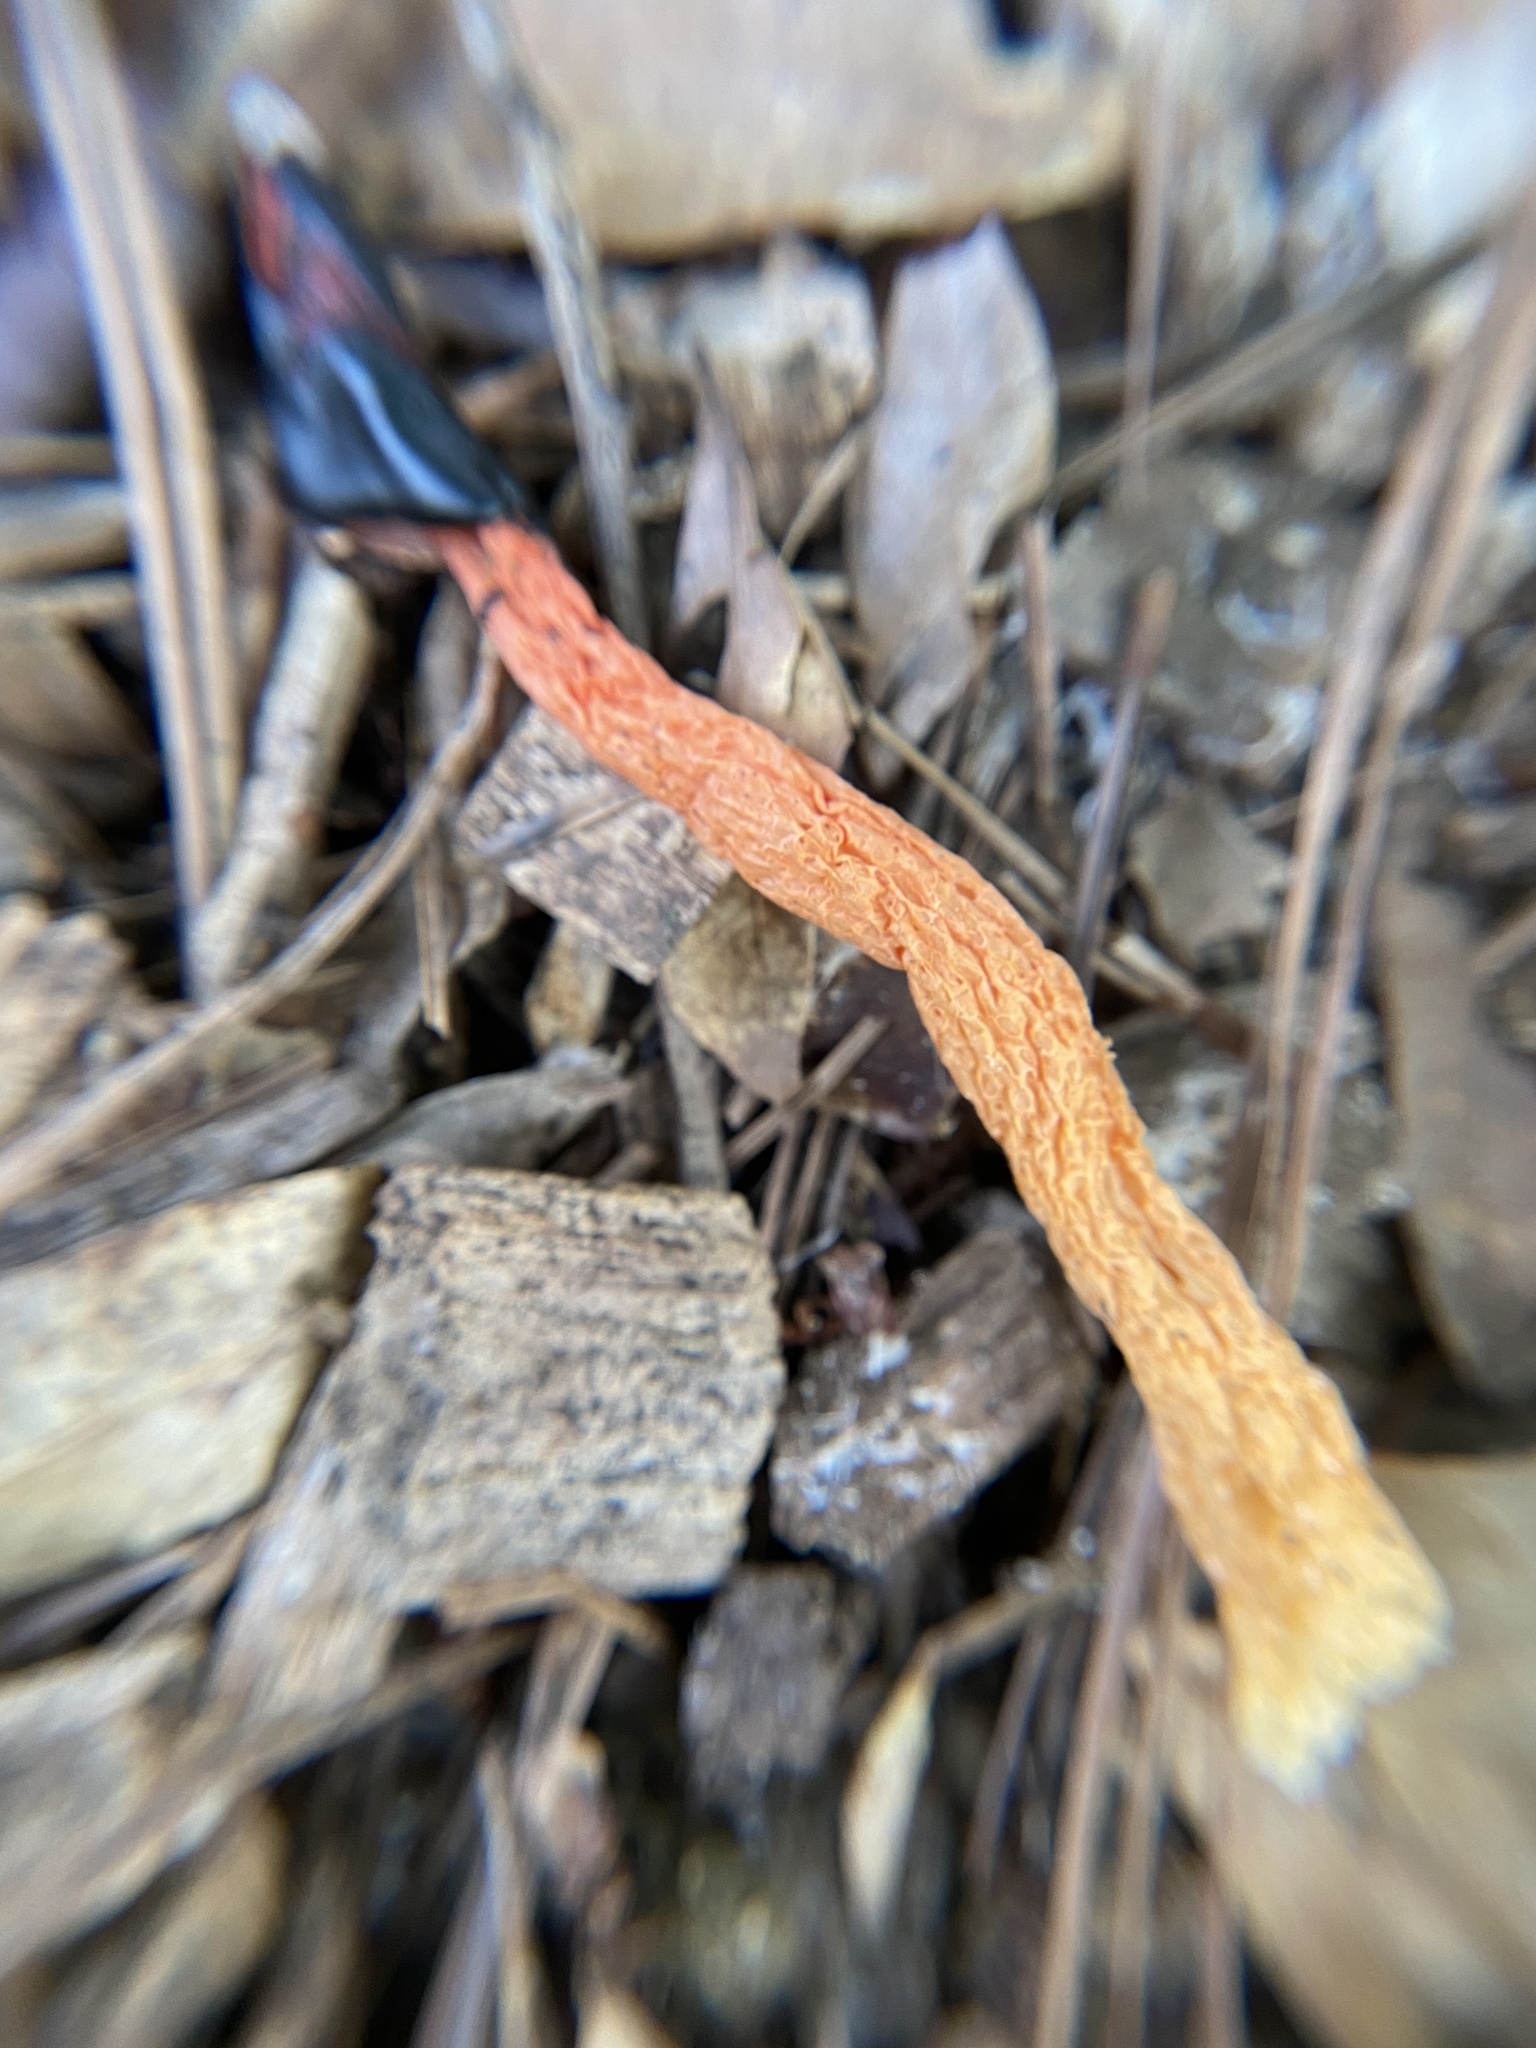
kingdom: Fungi
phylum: Basidiomycota
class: Agaricomycetes
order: Phallales
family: Phallaceae
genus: Phallus
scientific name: Phallus rugulosus
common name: Wrinkly stinkhorn
